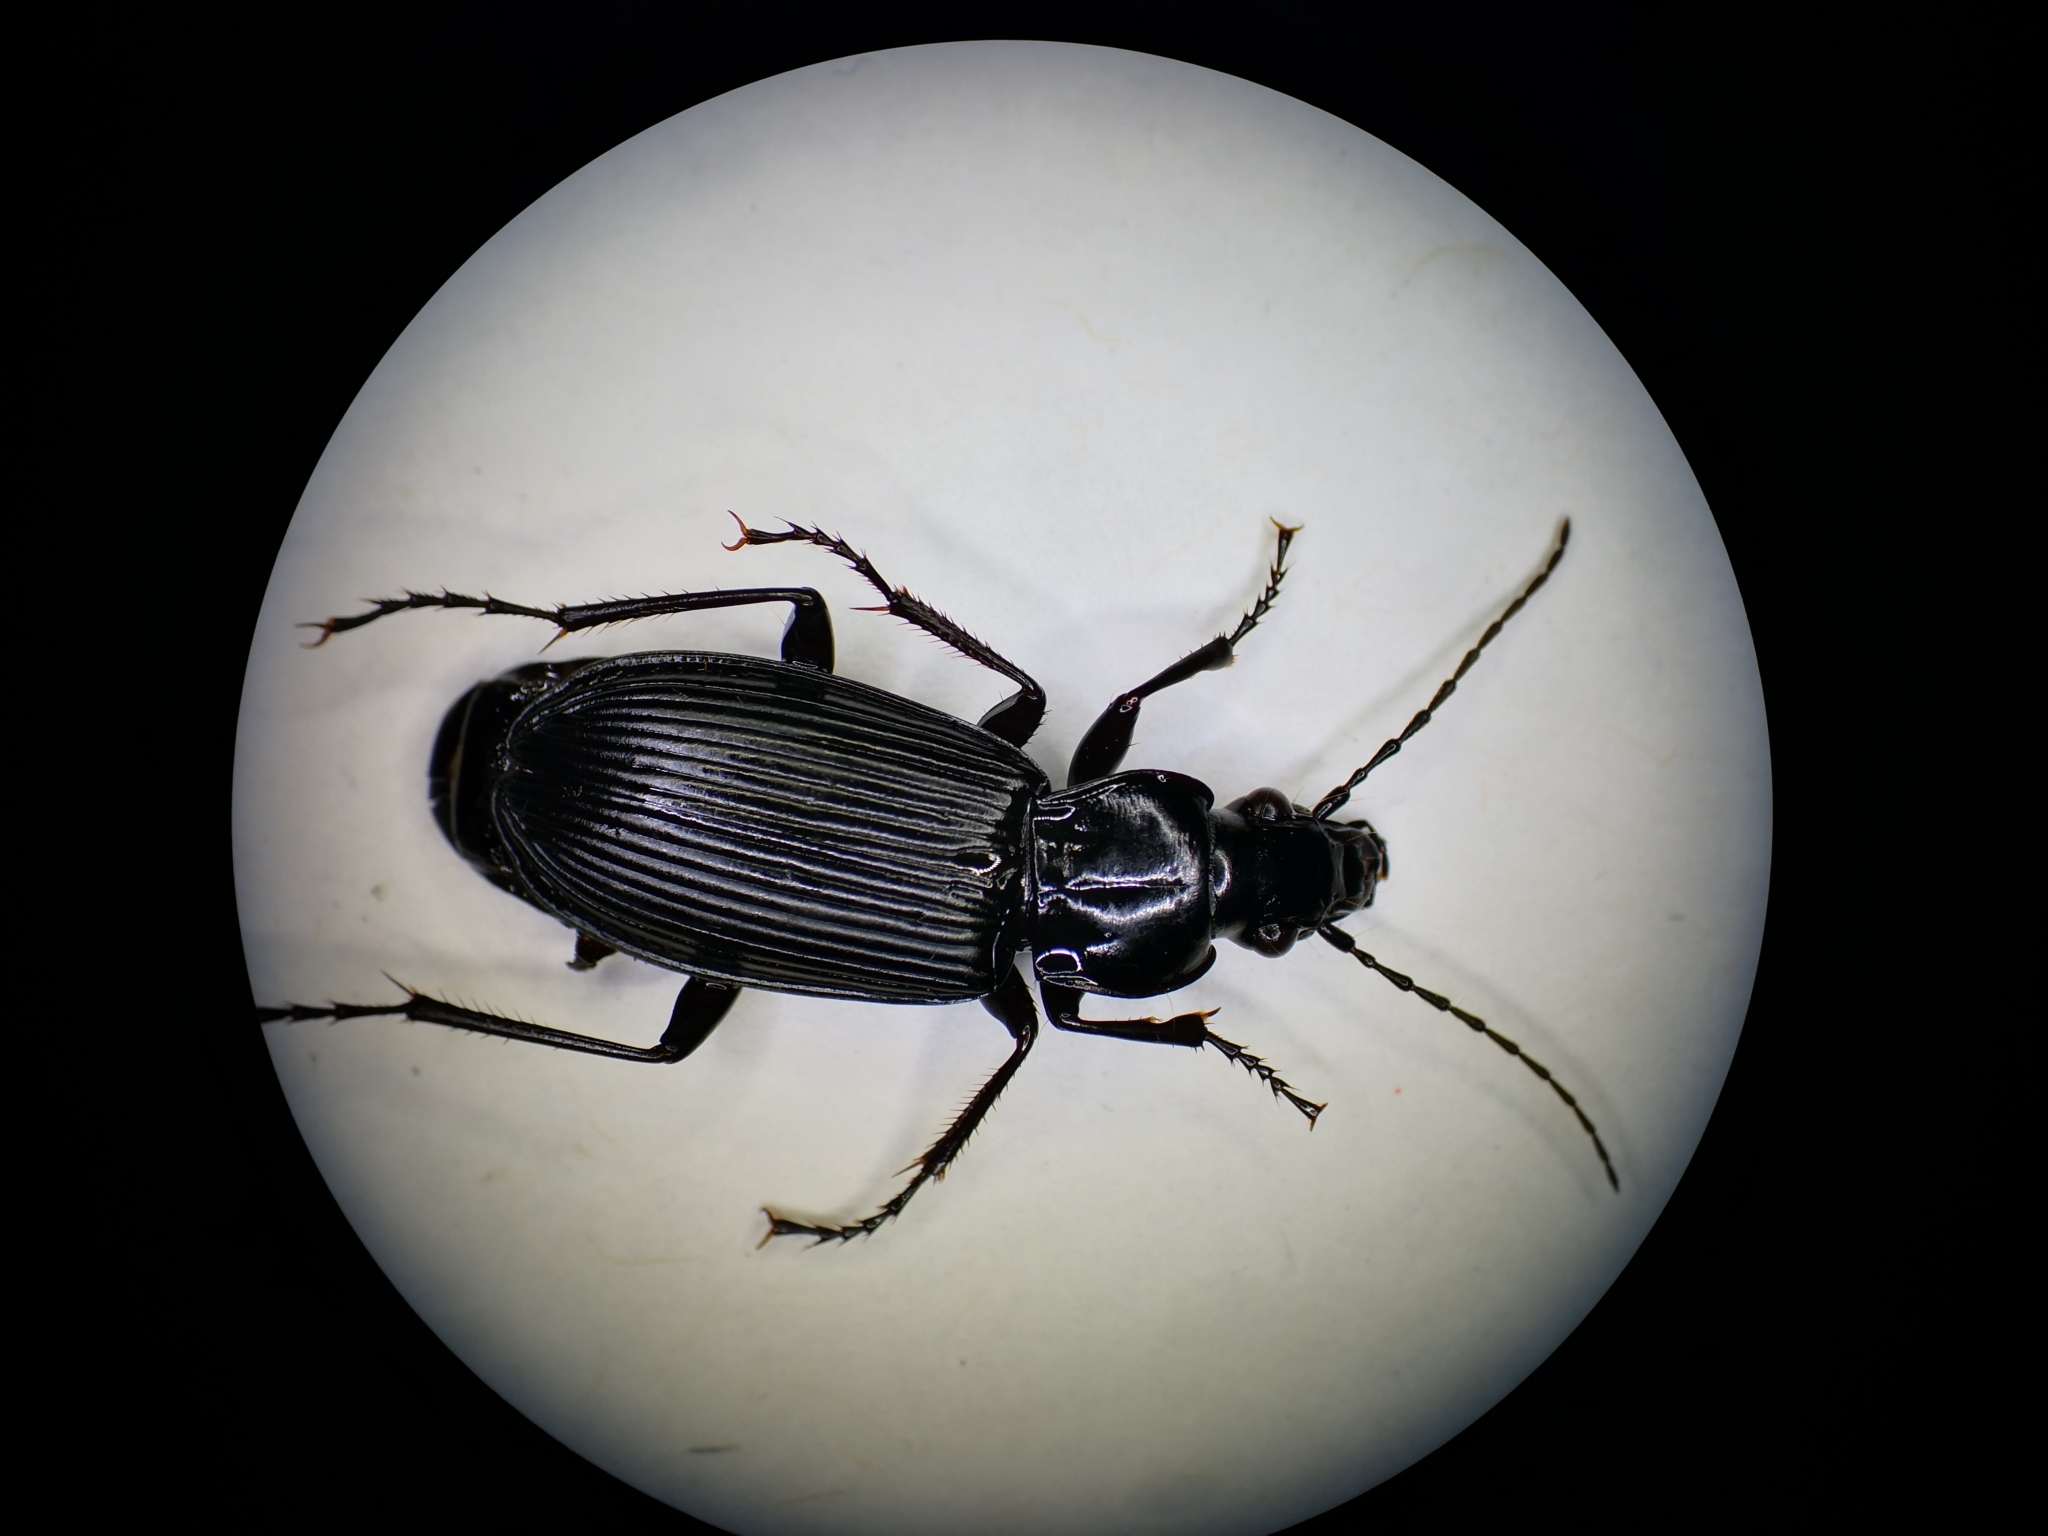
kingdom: Animalia
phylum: Arthropoda
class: Insecta
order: Coleoptera
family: Carabidae
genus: Pterostichus
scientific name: Pterostichus niger
